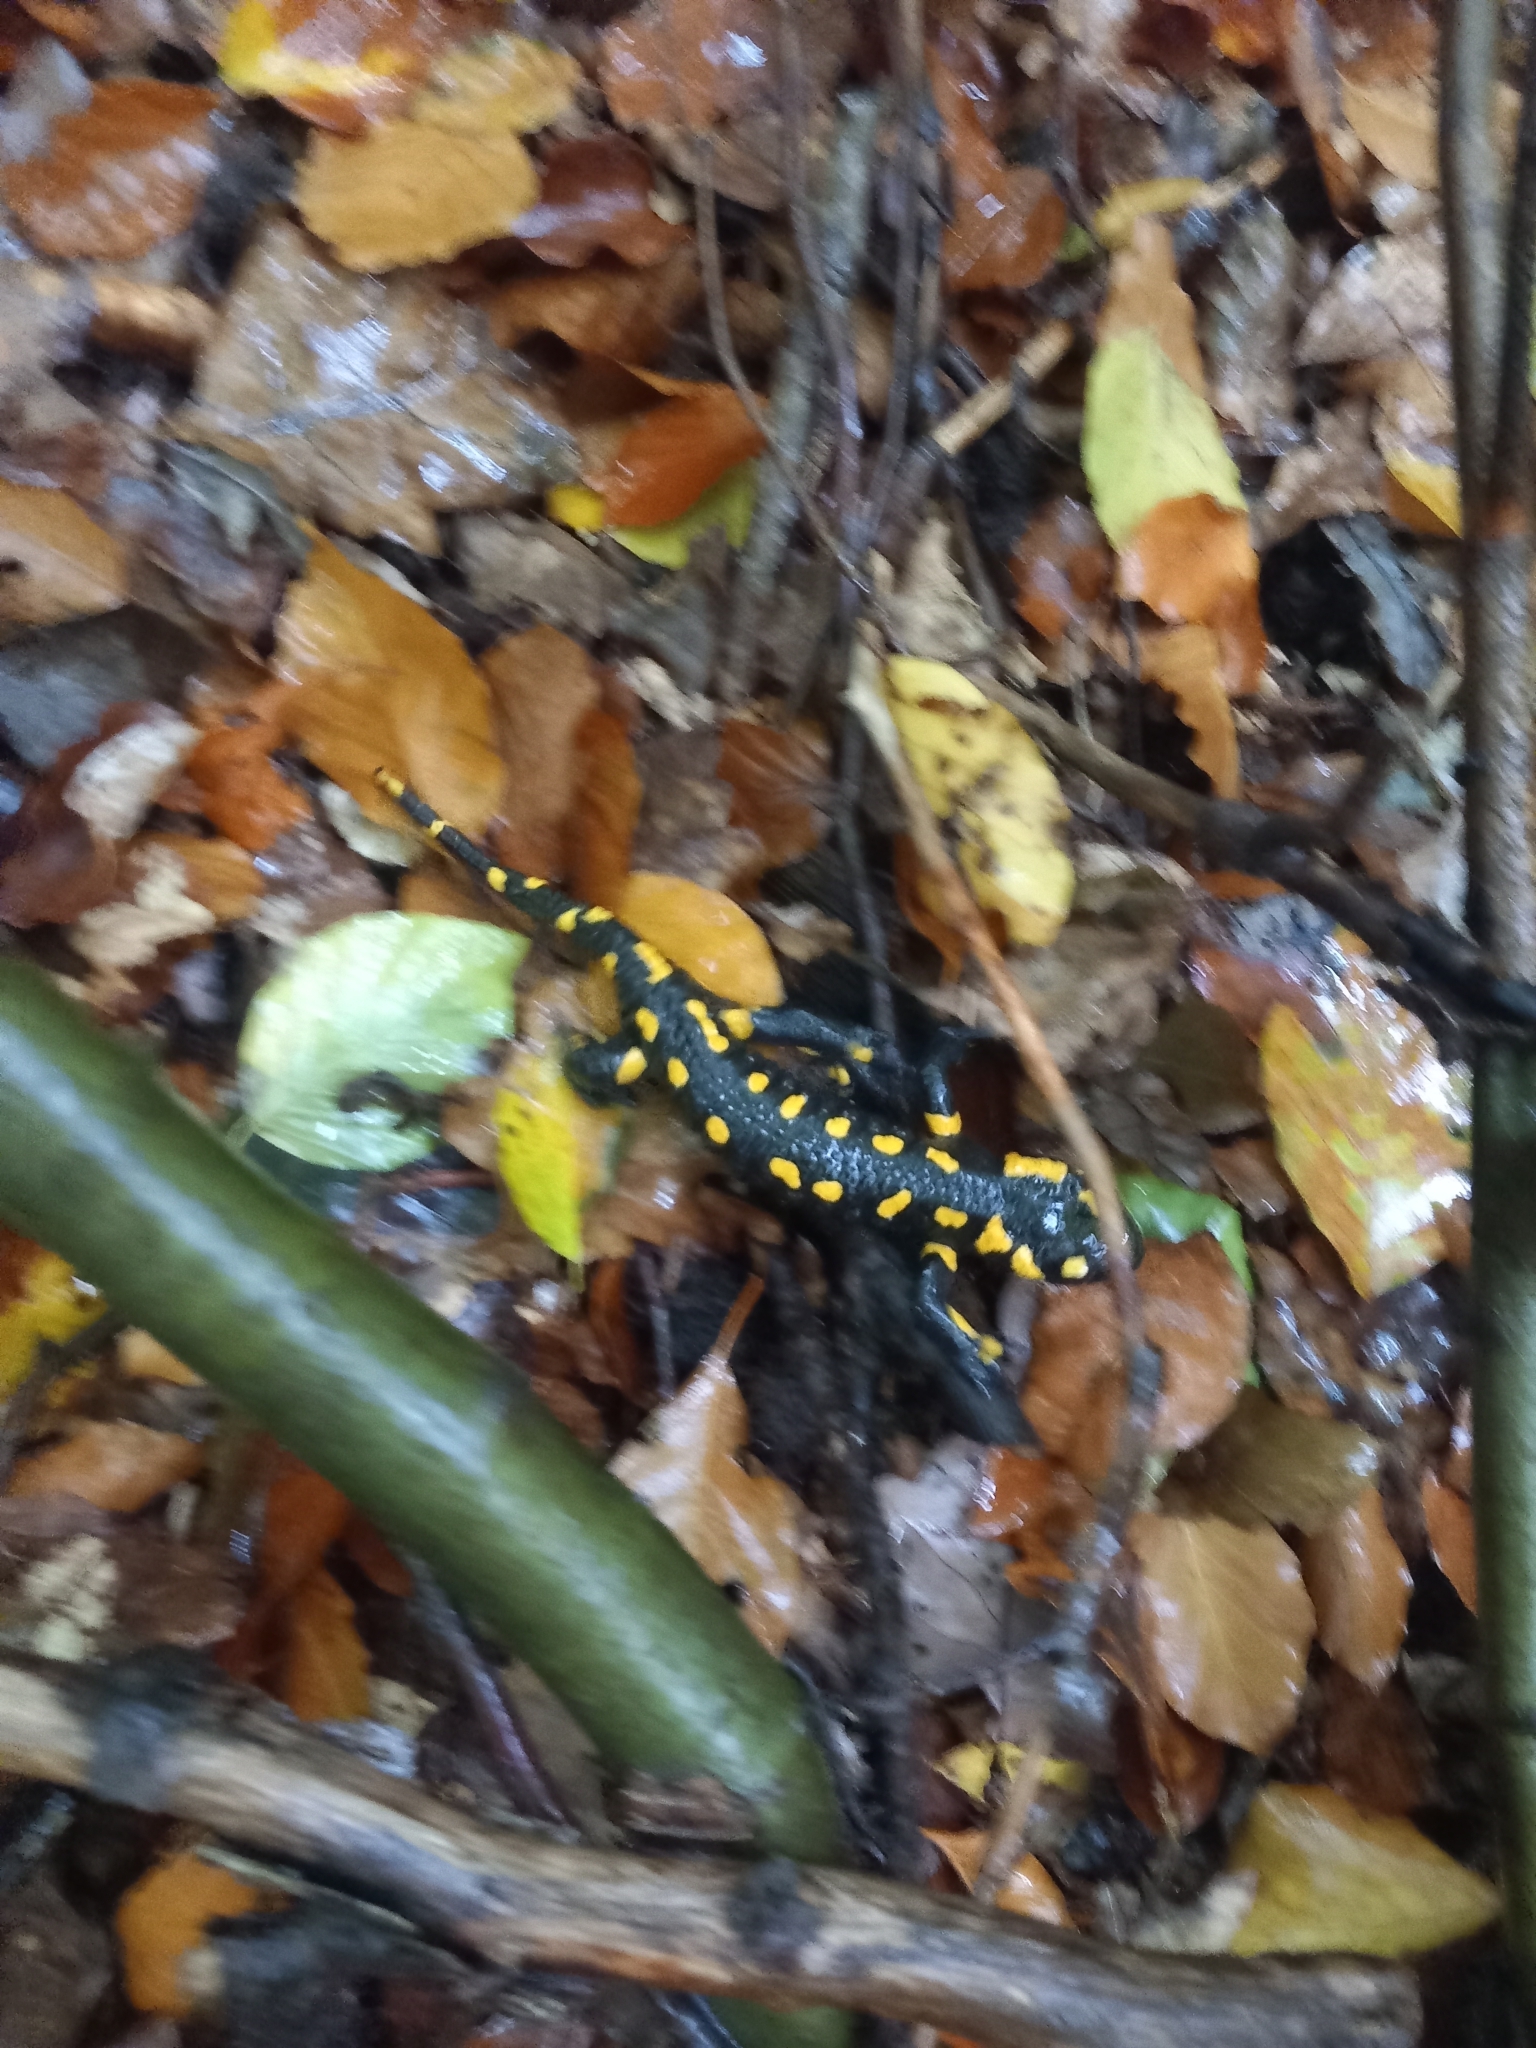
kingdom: Animalia
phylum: Chordata
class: Amphibia
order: Caudata
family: Salamandridae
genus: Salamandra
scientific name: Salamandra salamandra
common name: Fire salamander
